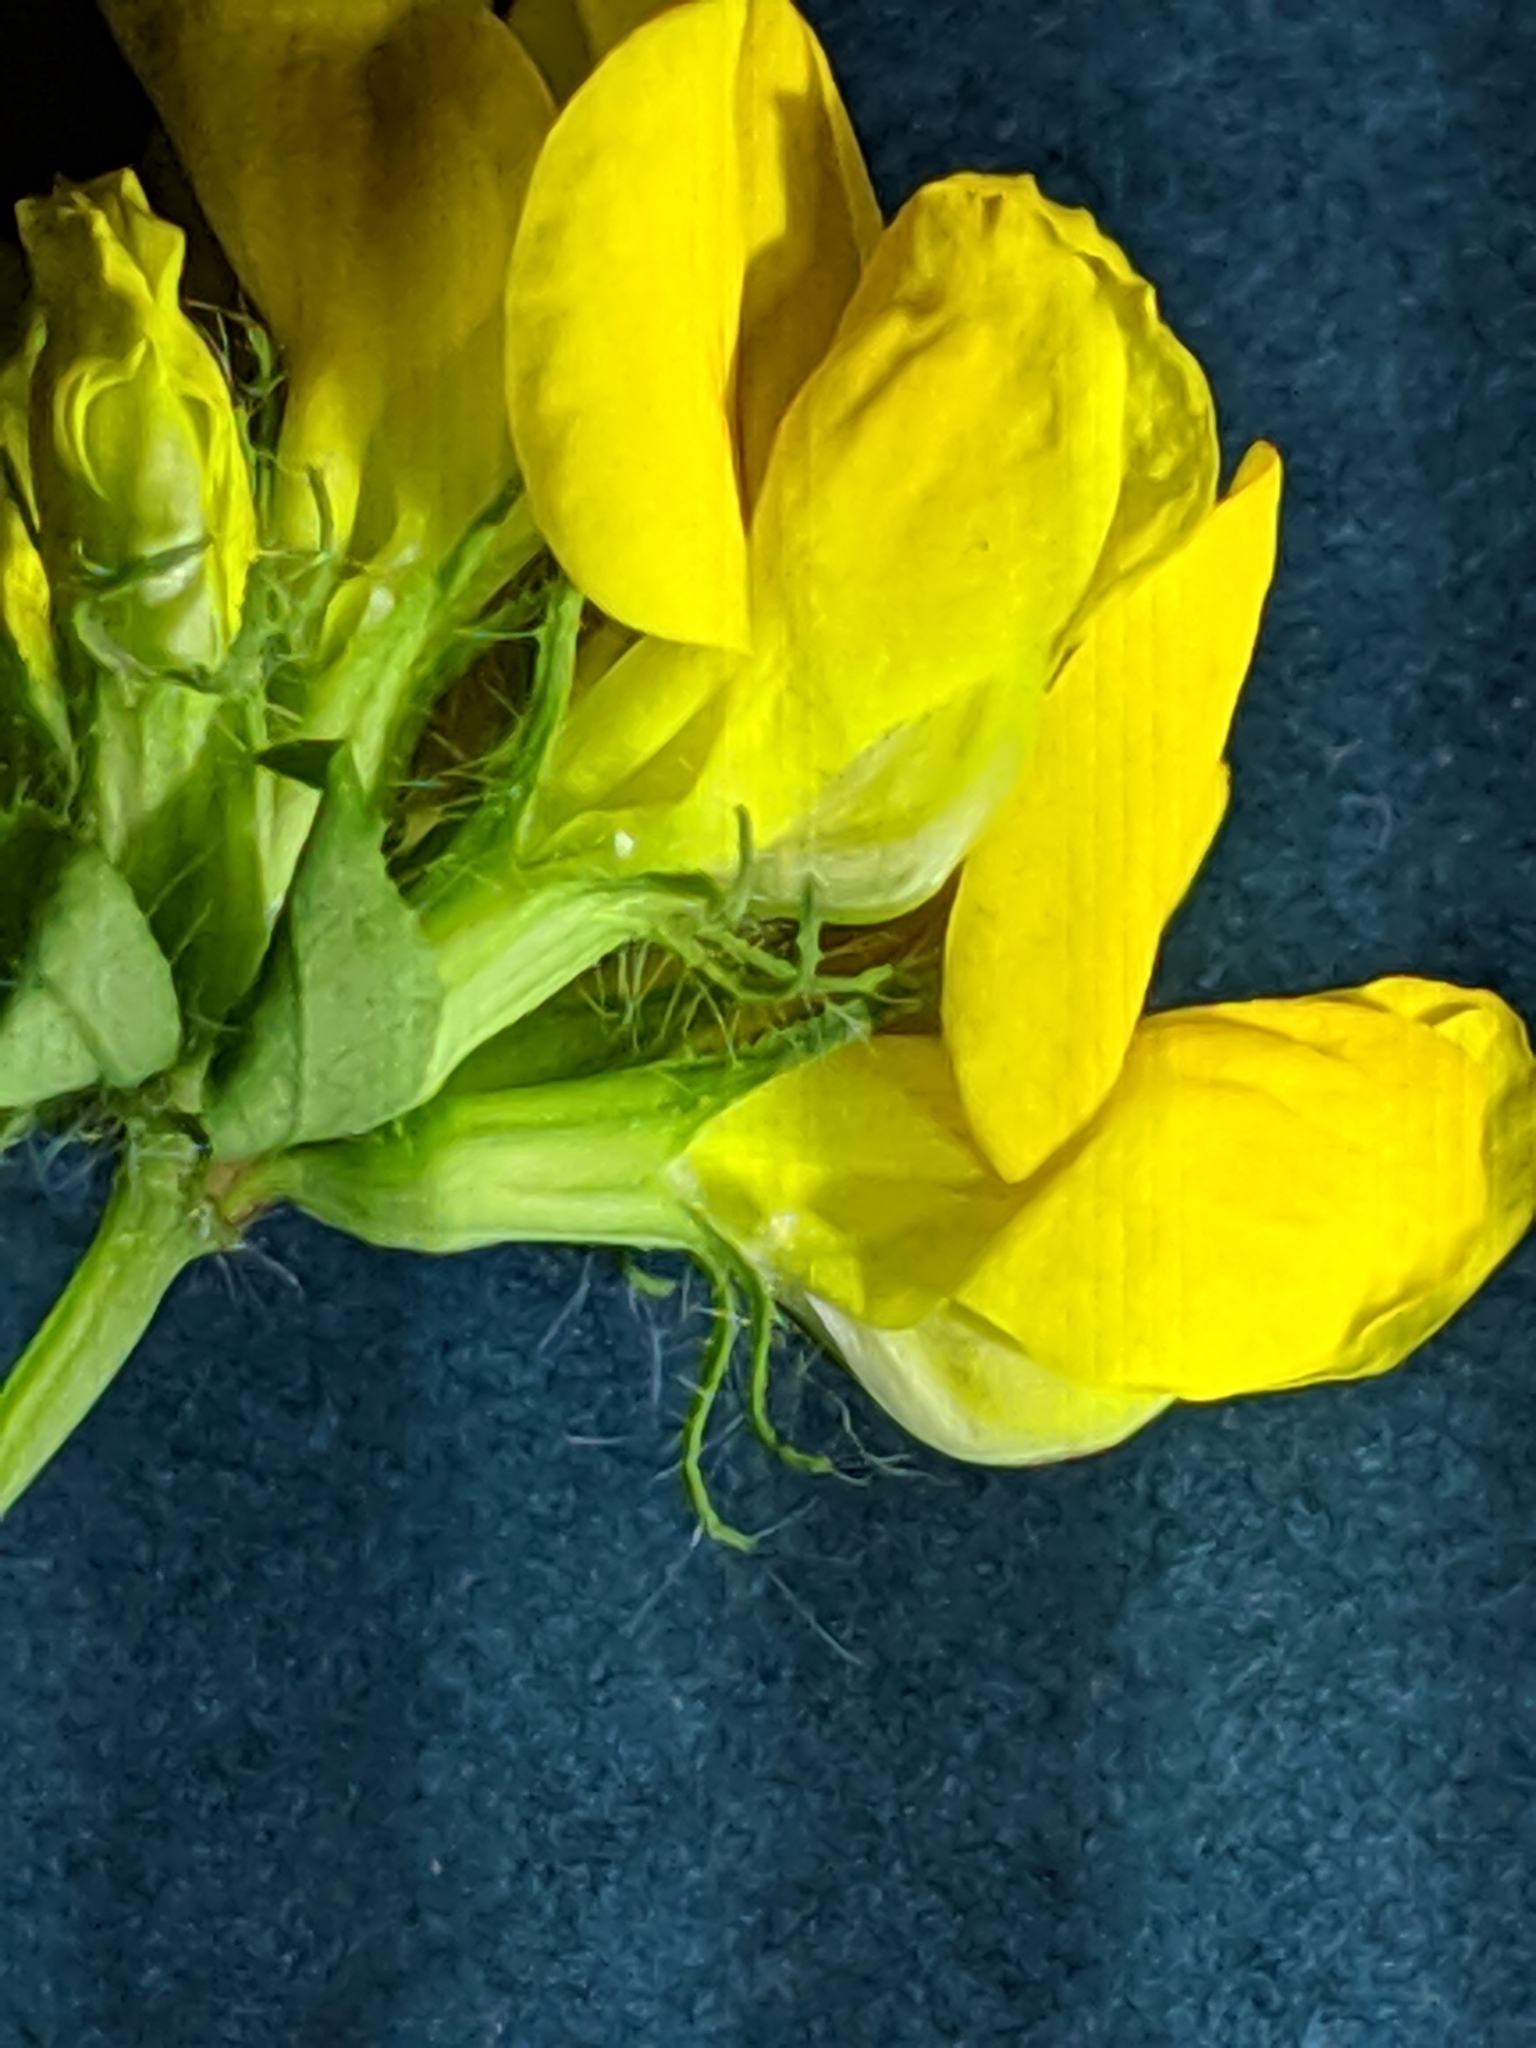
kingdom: Plantae
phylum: Tracheophyta
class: Magnoliopsida
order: Fabales
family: Fabaceae
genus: Lotus
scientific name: Lotus
